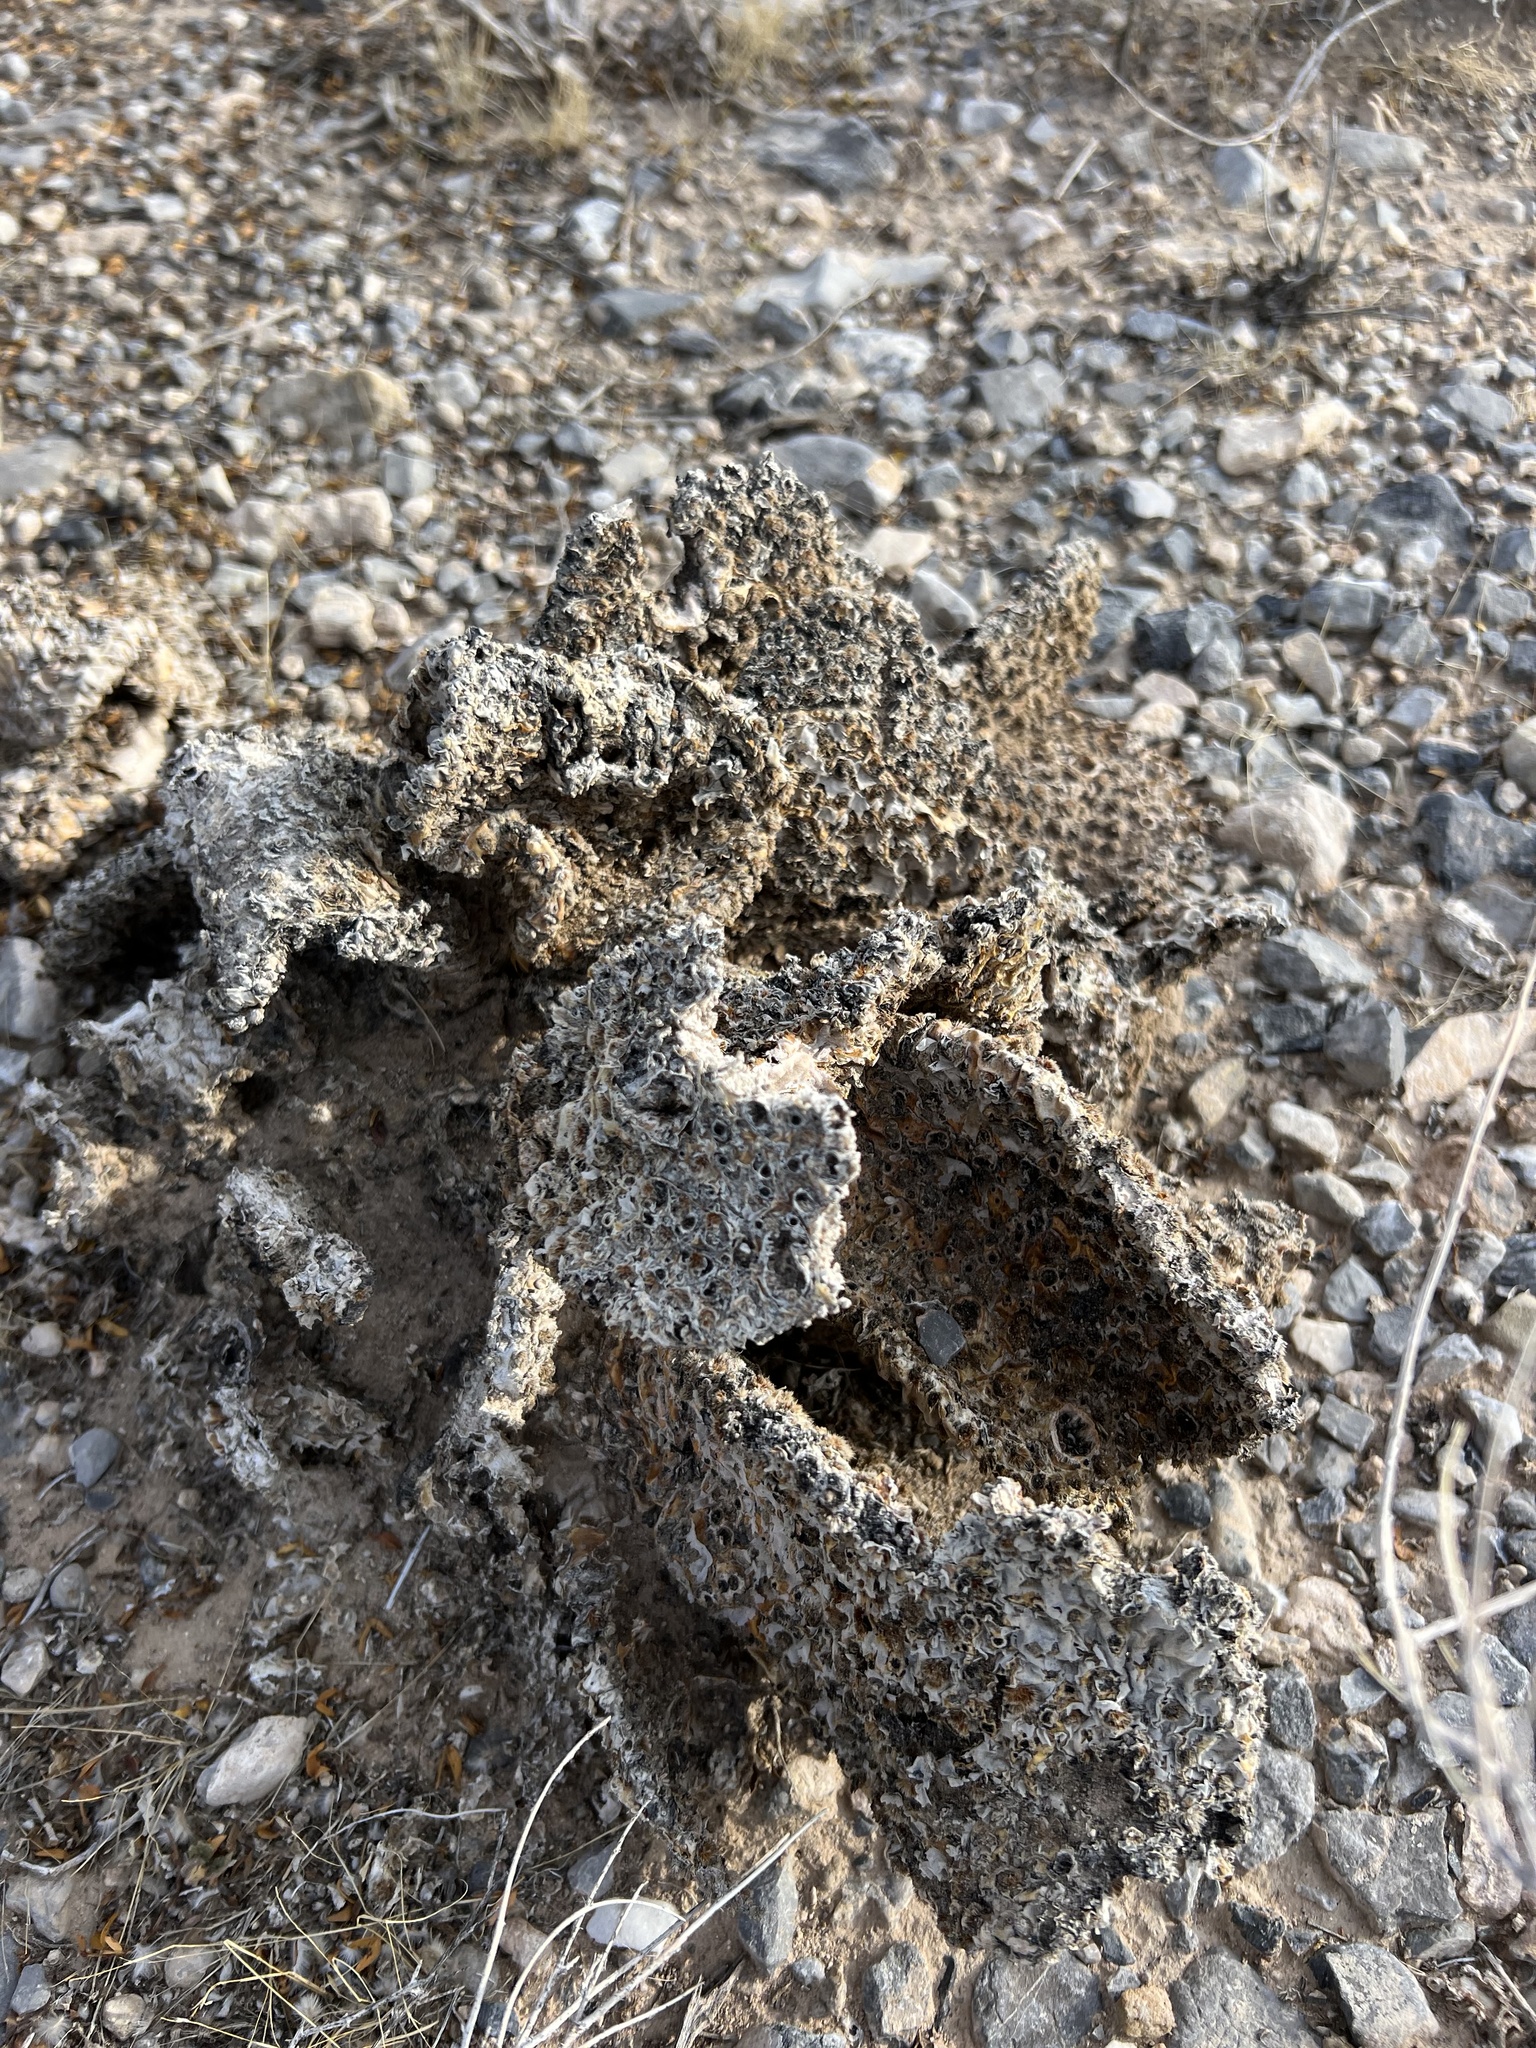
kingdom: Plantae
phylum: Tracheophyta
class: Magnoliopsida
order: Caryophyllales
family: Cactaceae
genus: Opuntia
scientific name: Opuntia basilaris
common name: Beavertail prickly-pear
